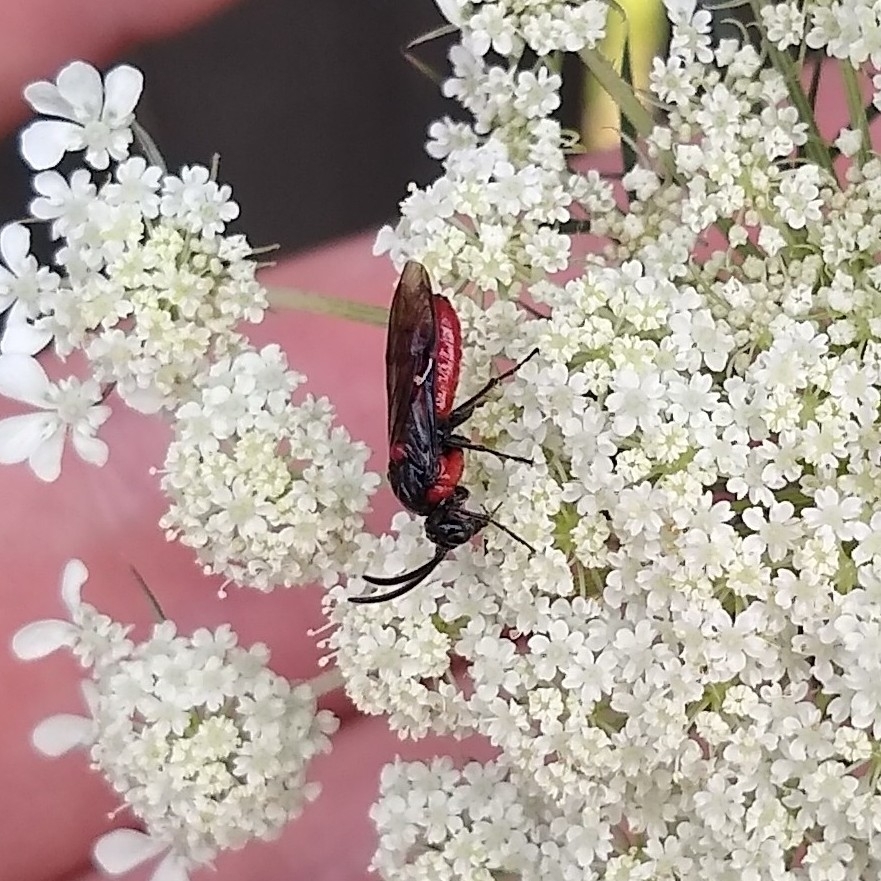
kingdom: Animalia
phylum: Arthropoda
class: Insecta
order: Hymenoptera
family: Argidae
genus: Arge
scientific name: Arge humeralis
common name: Poison ivy sawfly
